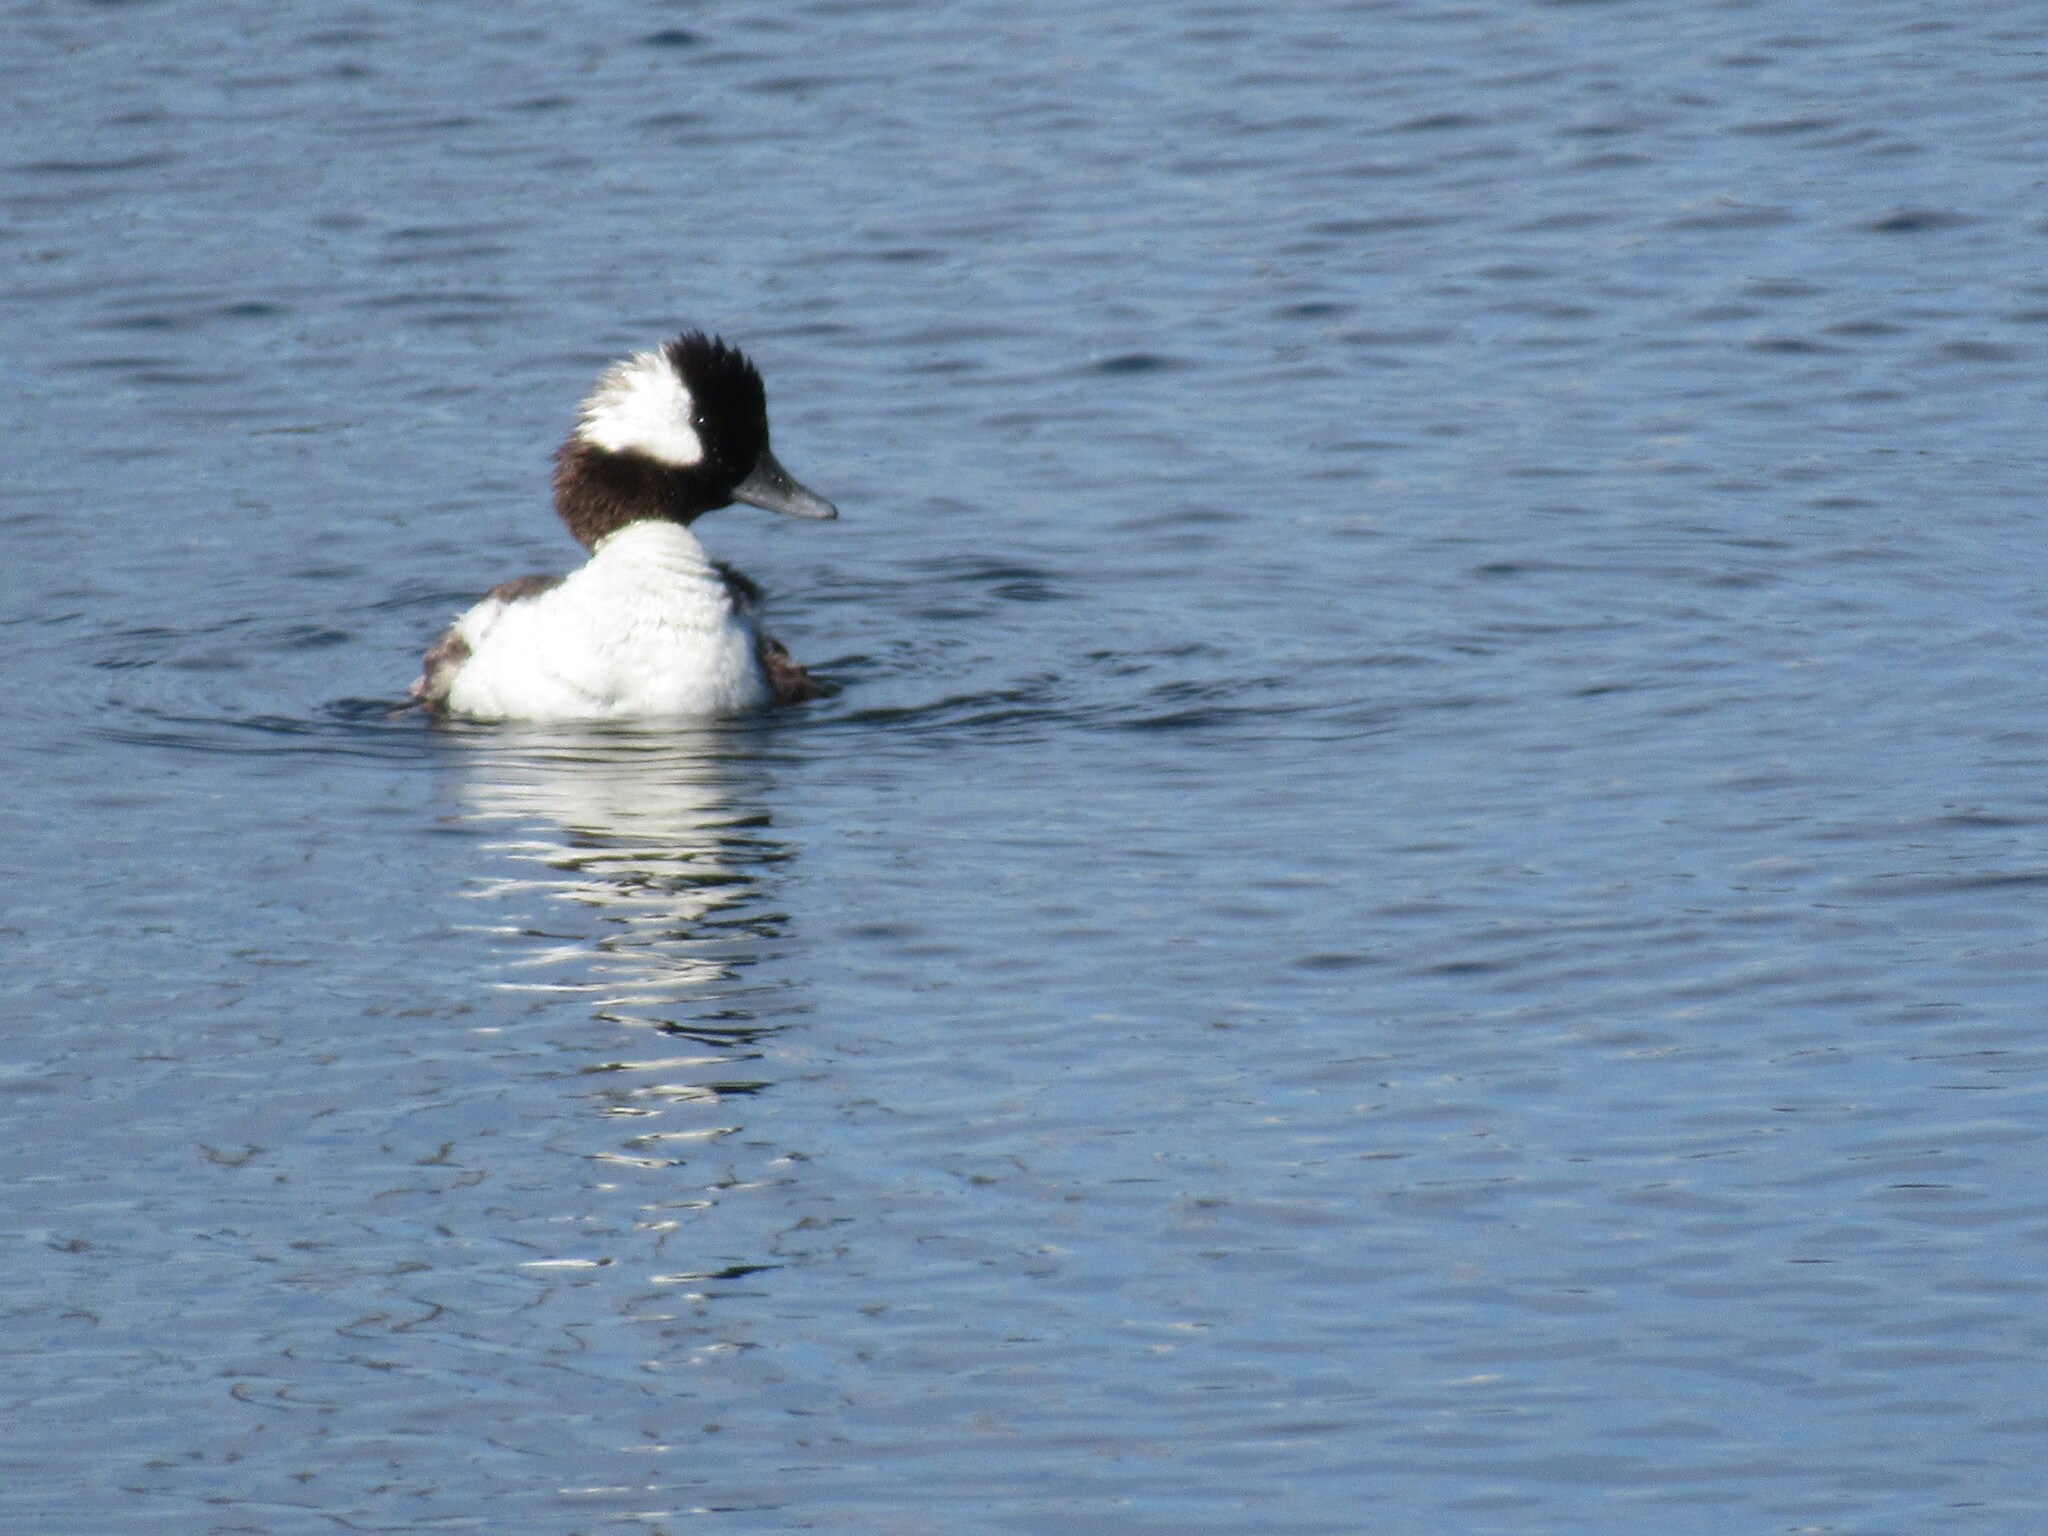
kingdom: Animalia
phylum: Chordata
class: Aves
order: Anseriformes
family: Anatidae
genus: Bucephala
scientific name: Bucephala albeola
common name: Bufflehead
